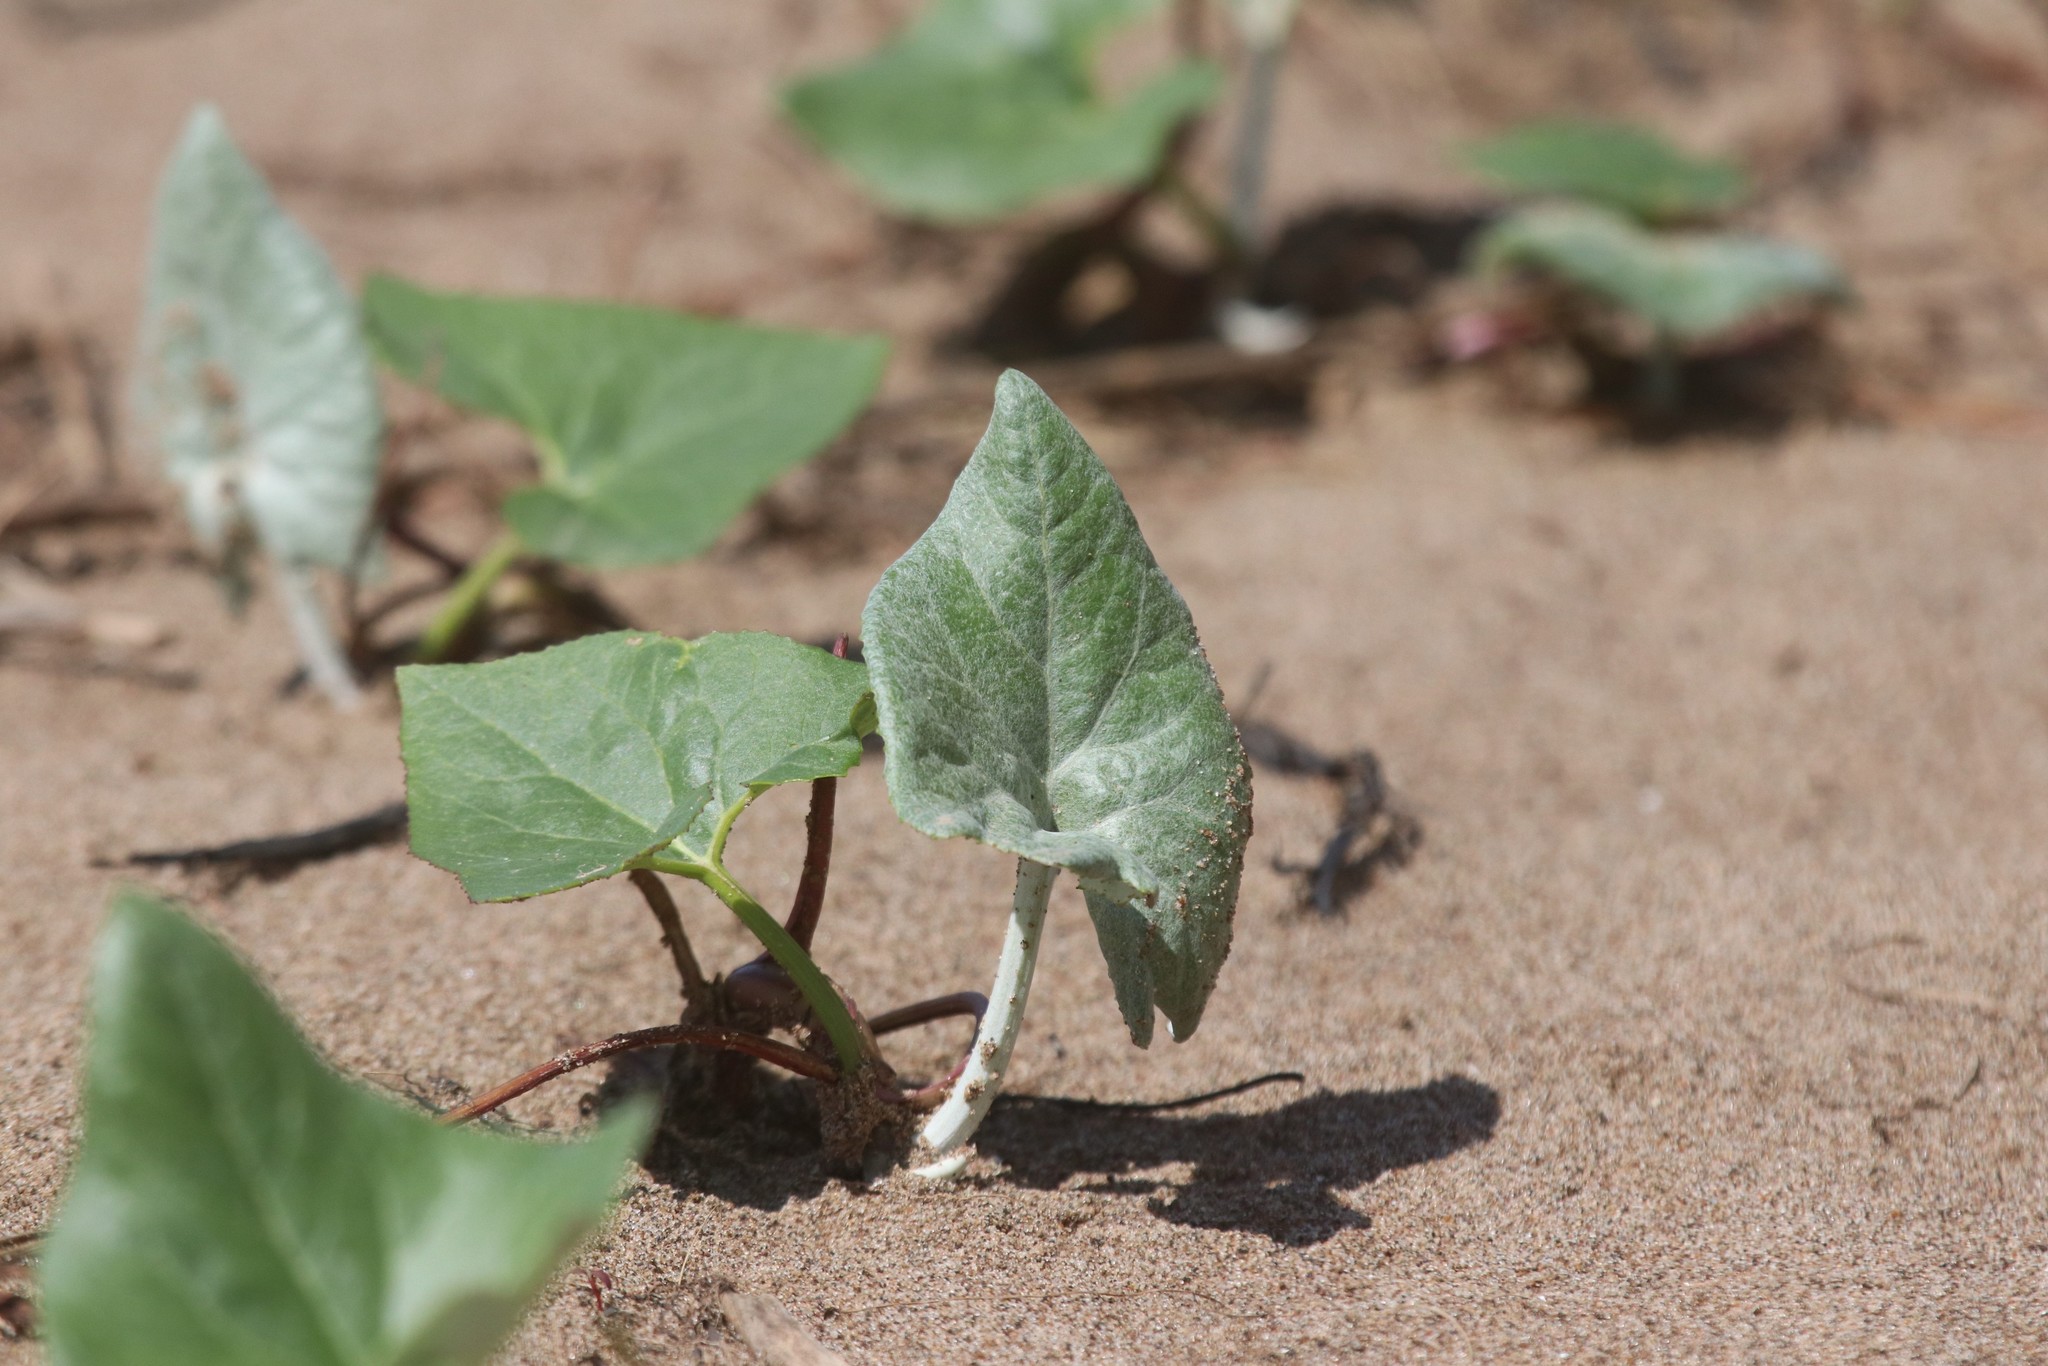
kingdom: Plantae
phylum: Tracheophyta
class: Magnoliopsida
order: Asterales
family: Asteraceae
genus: Petasites
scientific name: Petasites spurius
